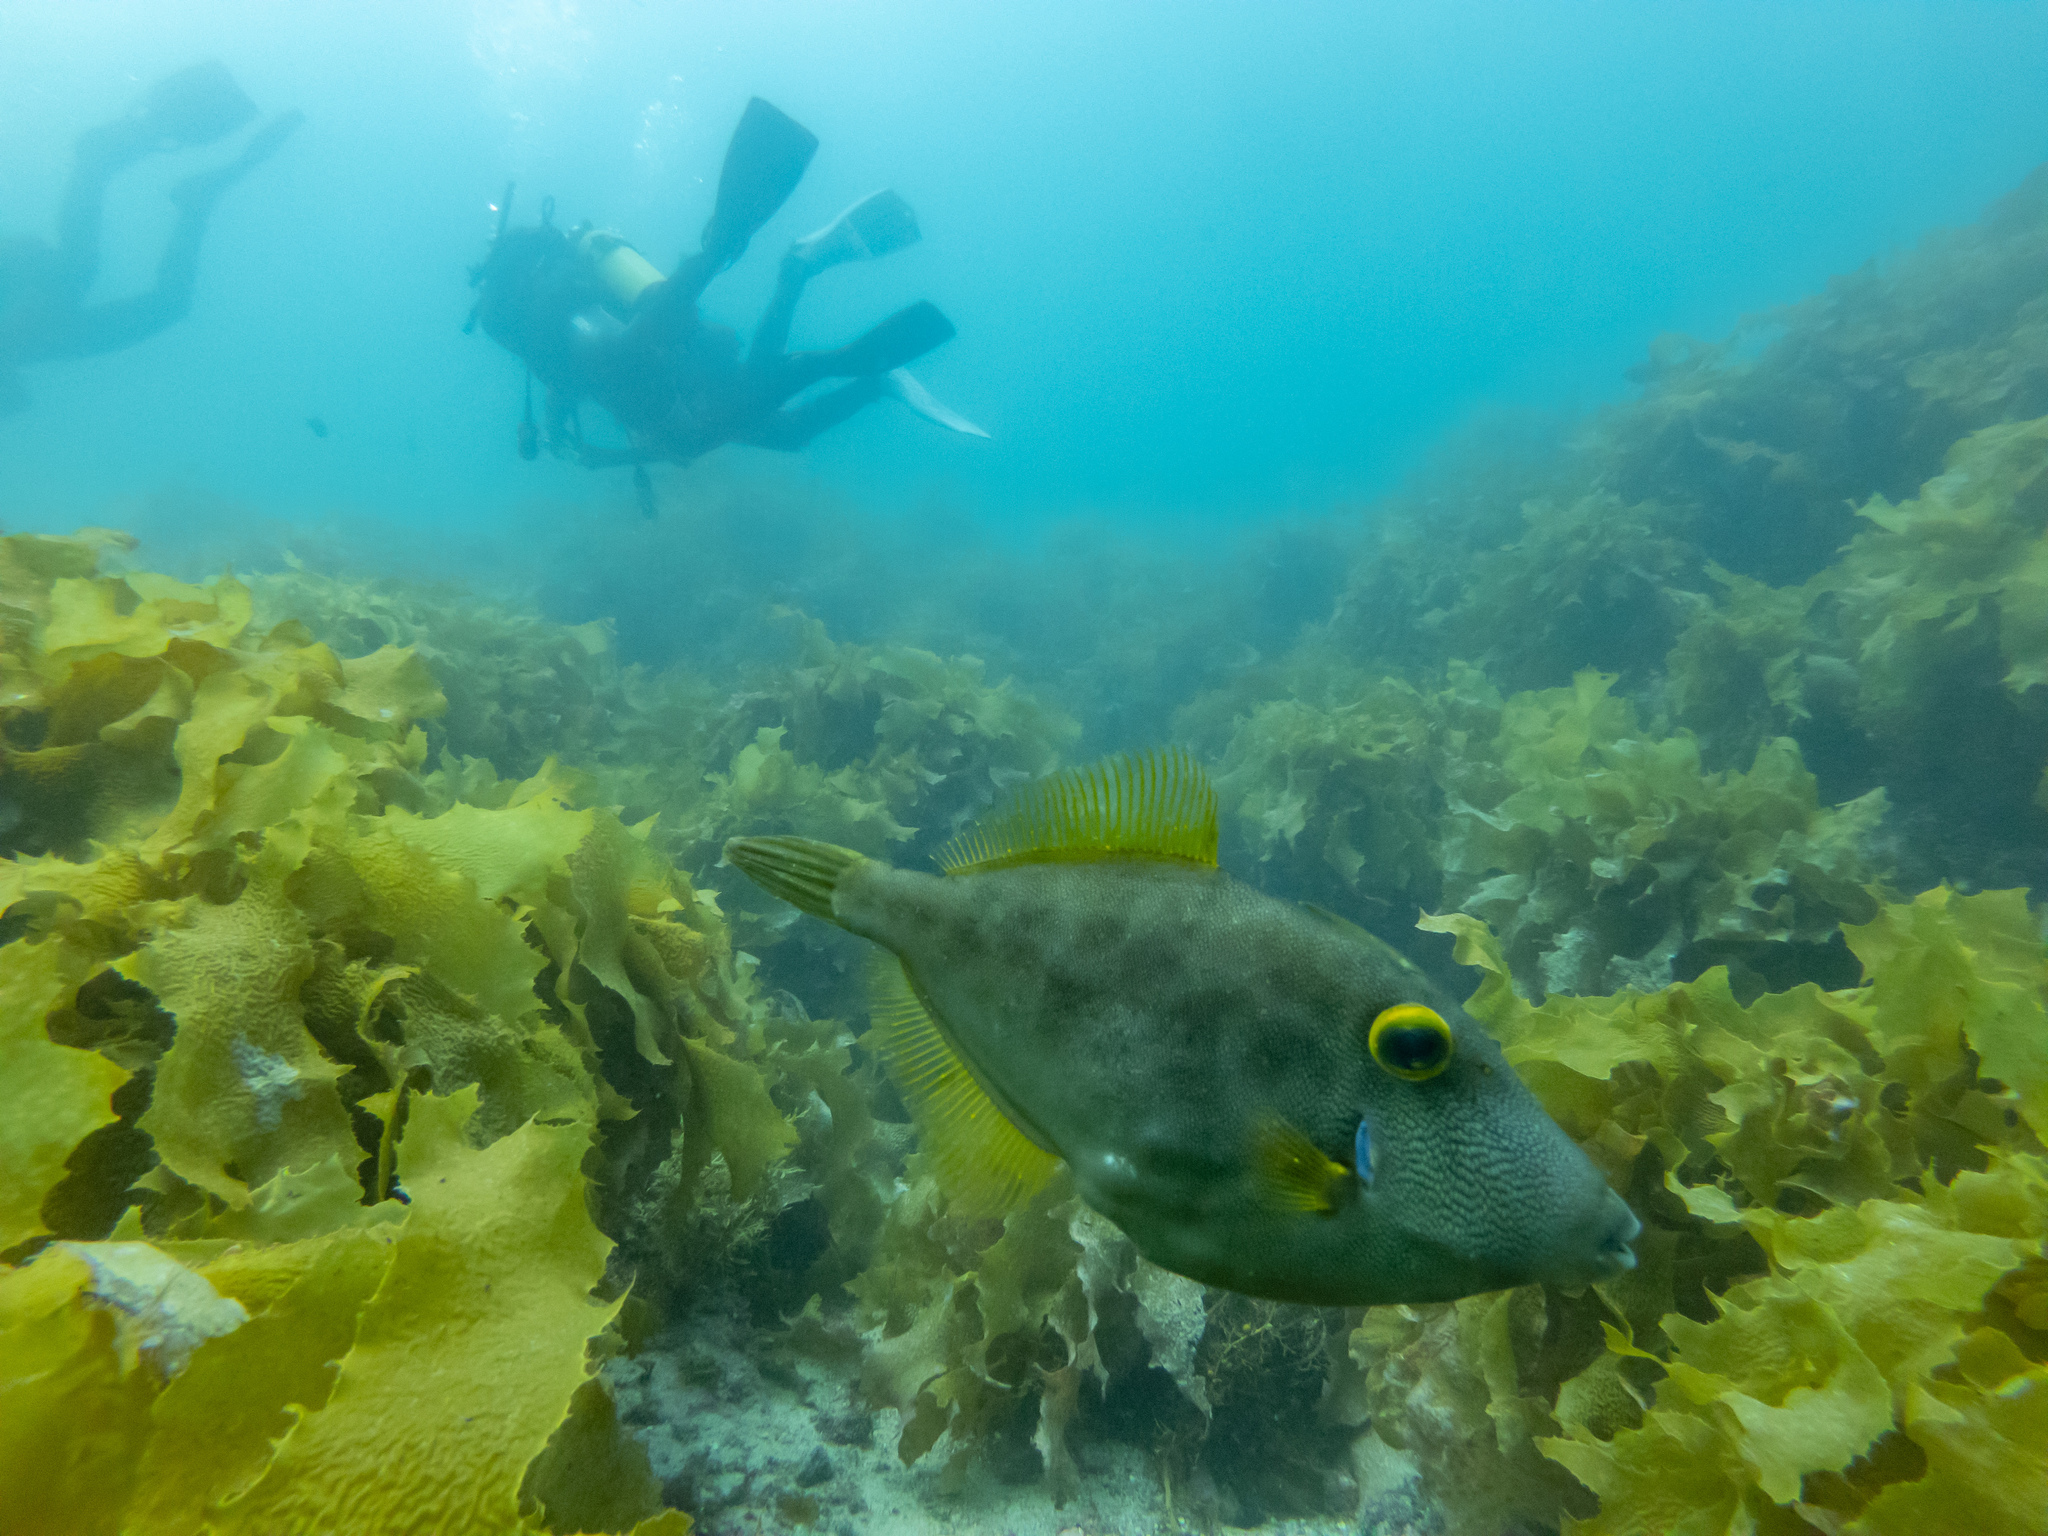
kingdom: Animalia
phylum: Chordata
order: Tetraodontiformes
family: Monacanthidae
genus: Meuschenia
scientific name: Meuschenia scaber
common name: Cosmopolitan leatherjacket
